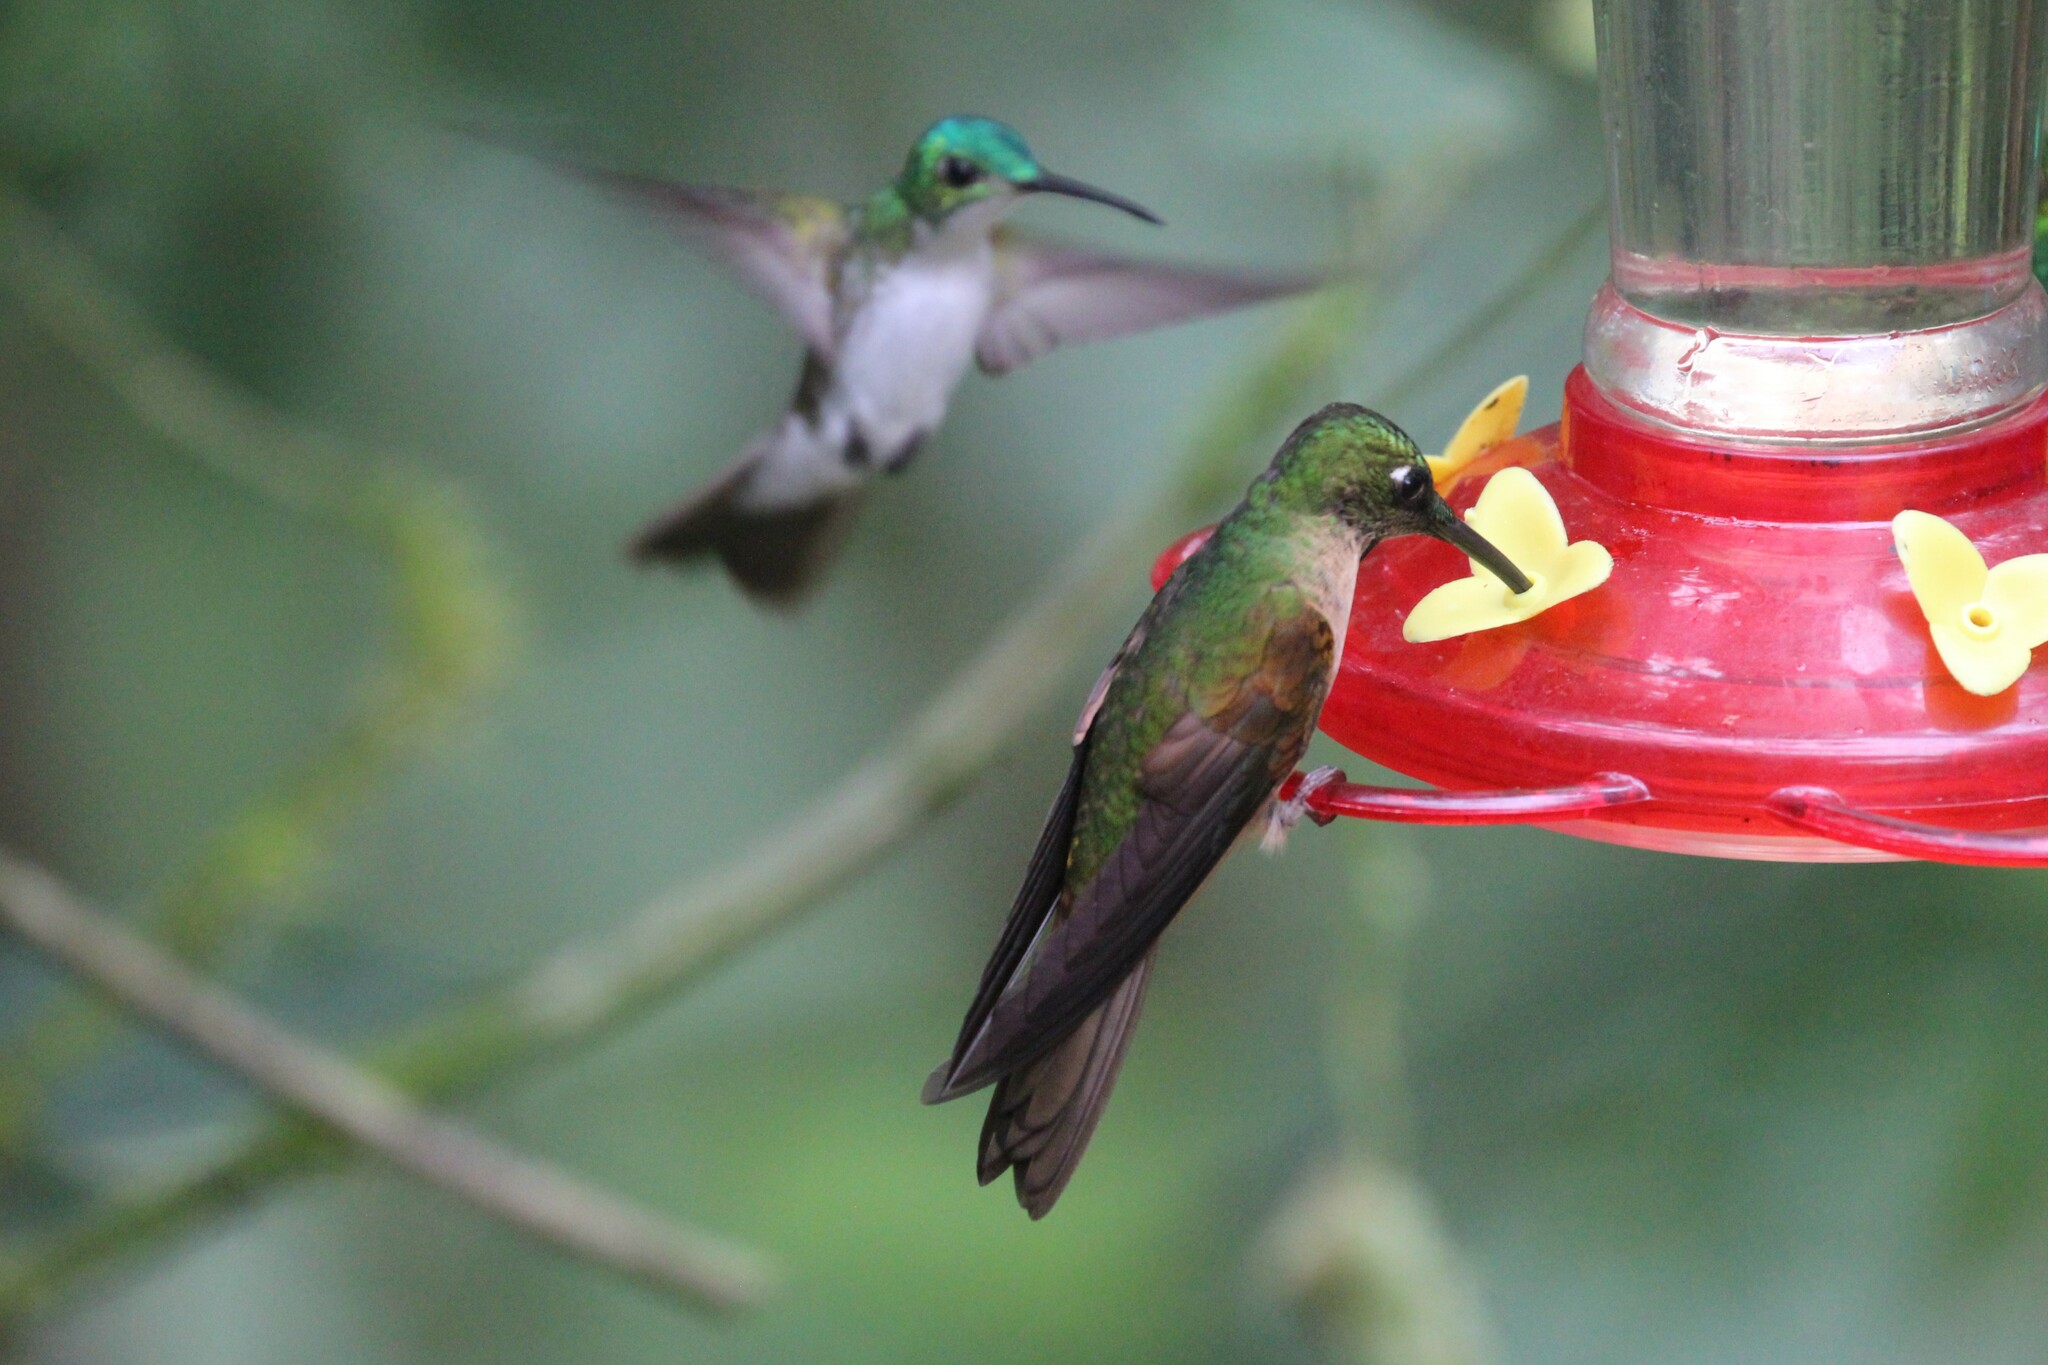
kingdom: Animalia
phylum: Chordata
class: Aves
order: Apodiformes
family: Trochilidae
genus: Heliodoxa
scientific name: Heliodoxa rubinoides
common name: Fawn-breasted brilliant
